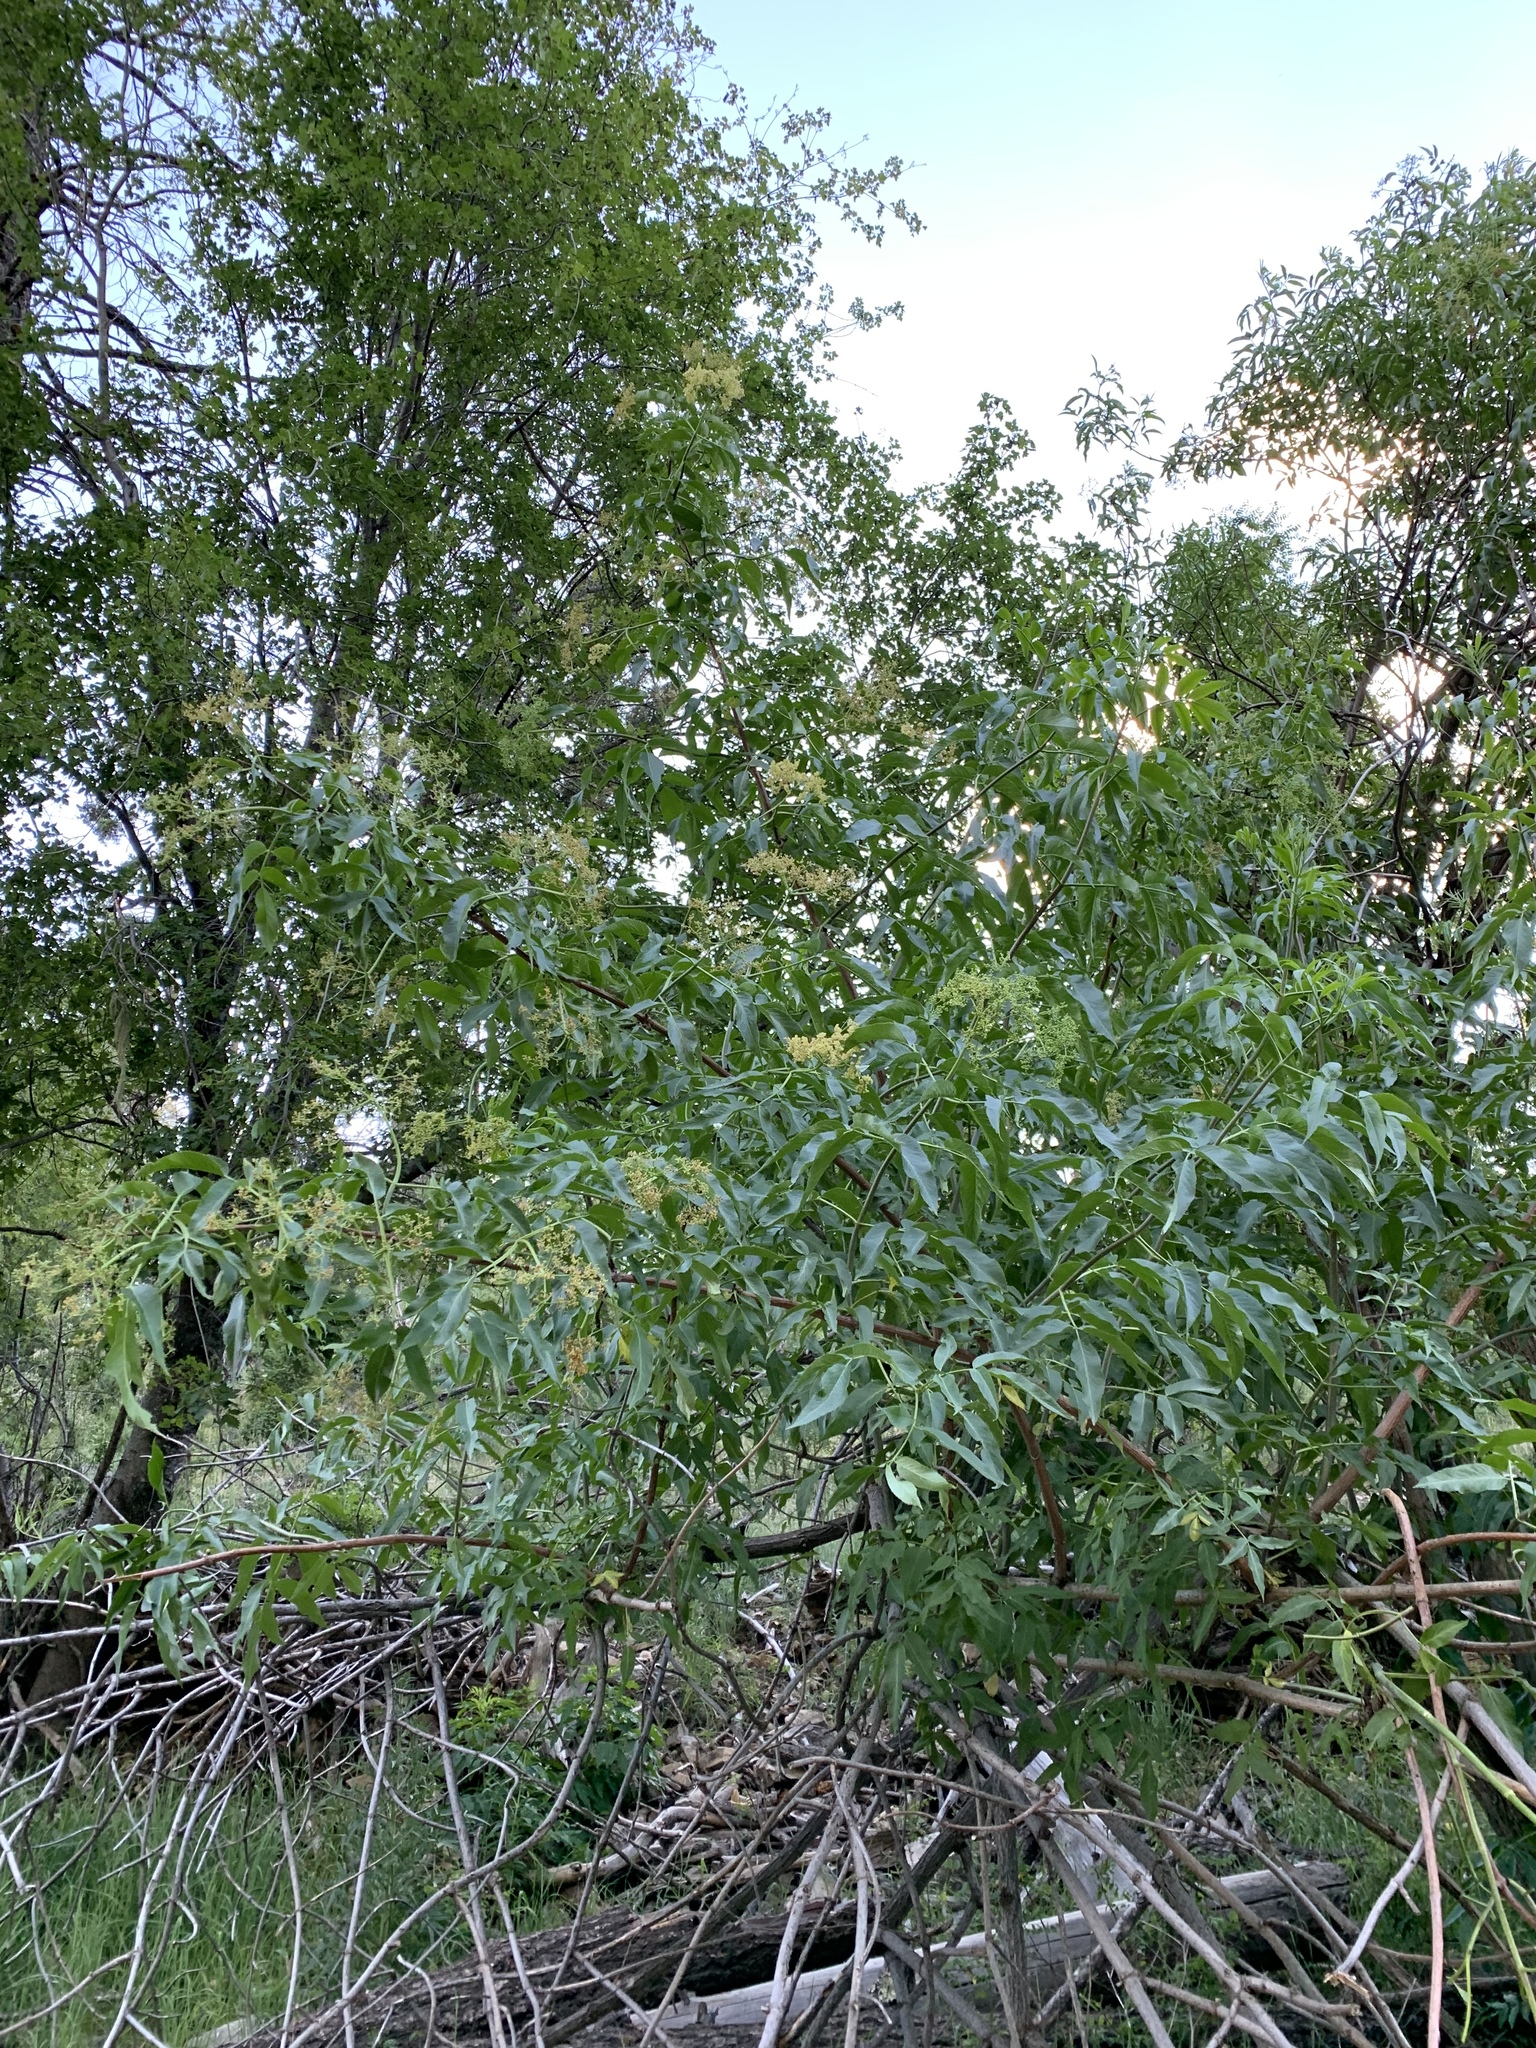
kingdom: Plantae
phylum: Tracheophyta
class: Magnoliopsida
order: Dipsacales
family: Viburnaceae
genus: Sambucus
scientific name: Sambucus cerulea
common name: Blue elder
